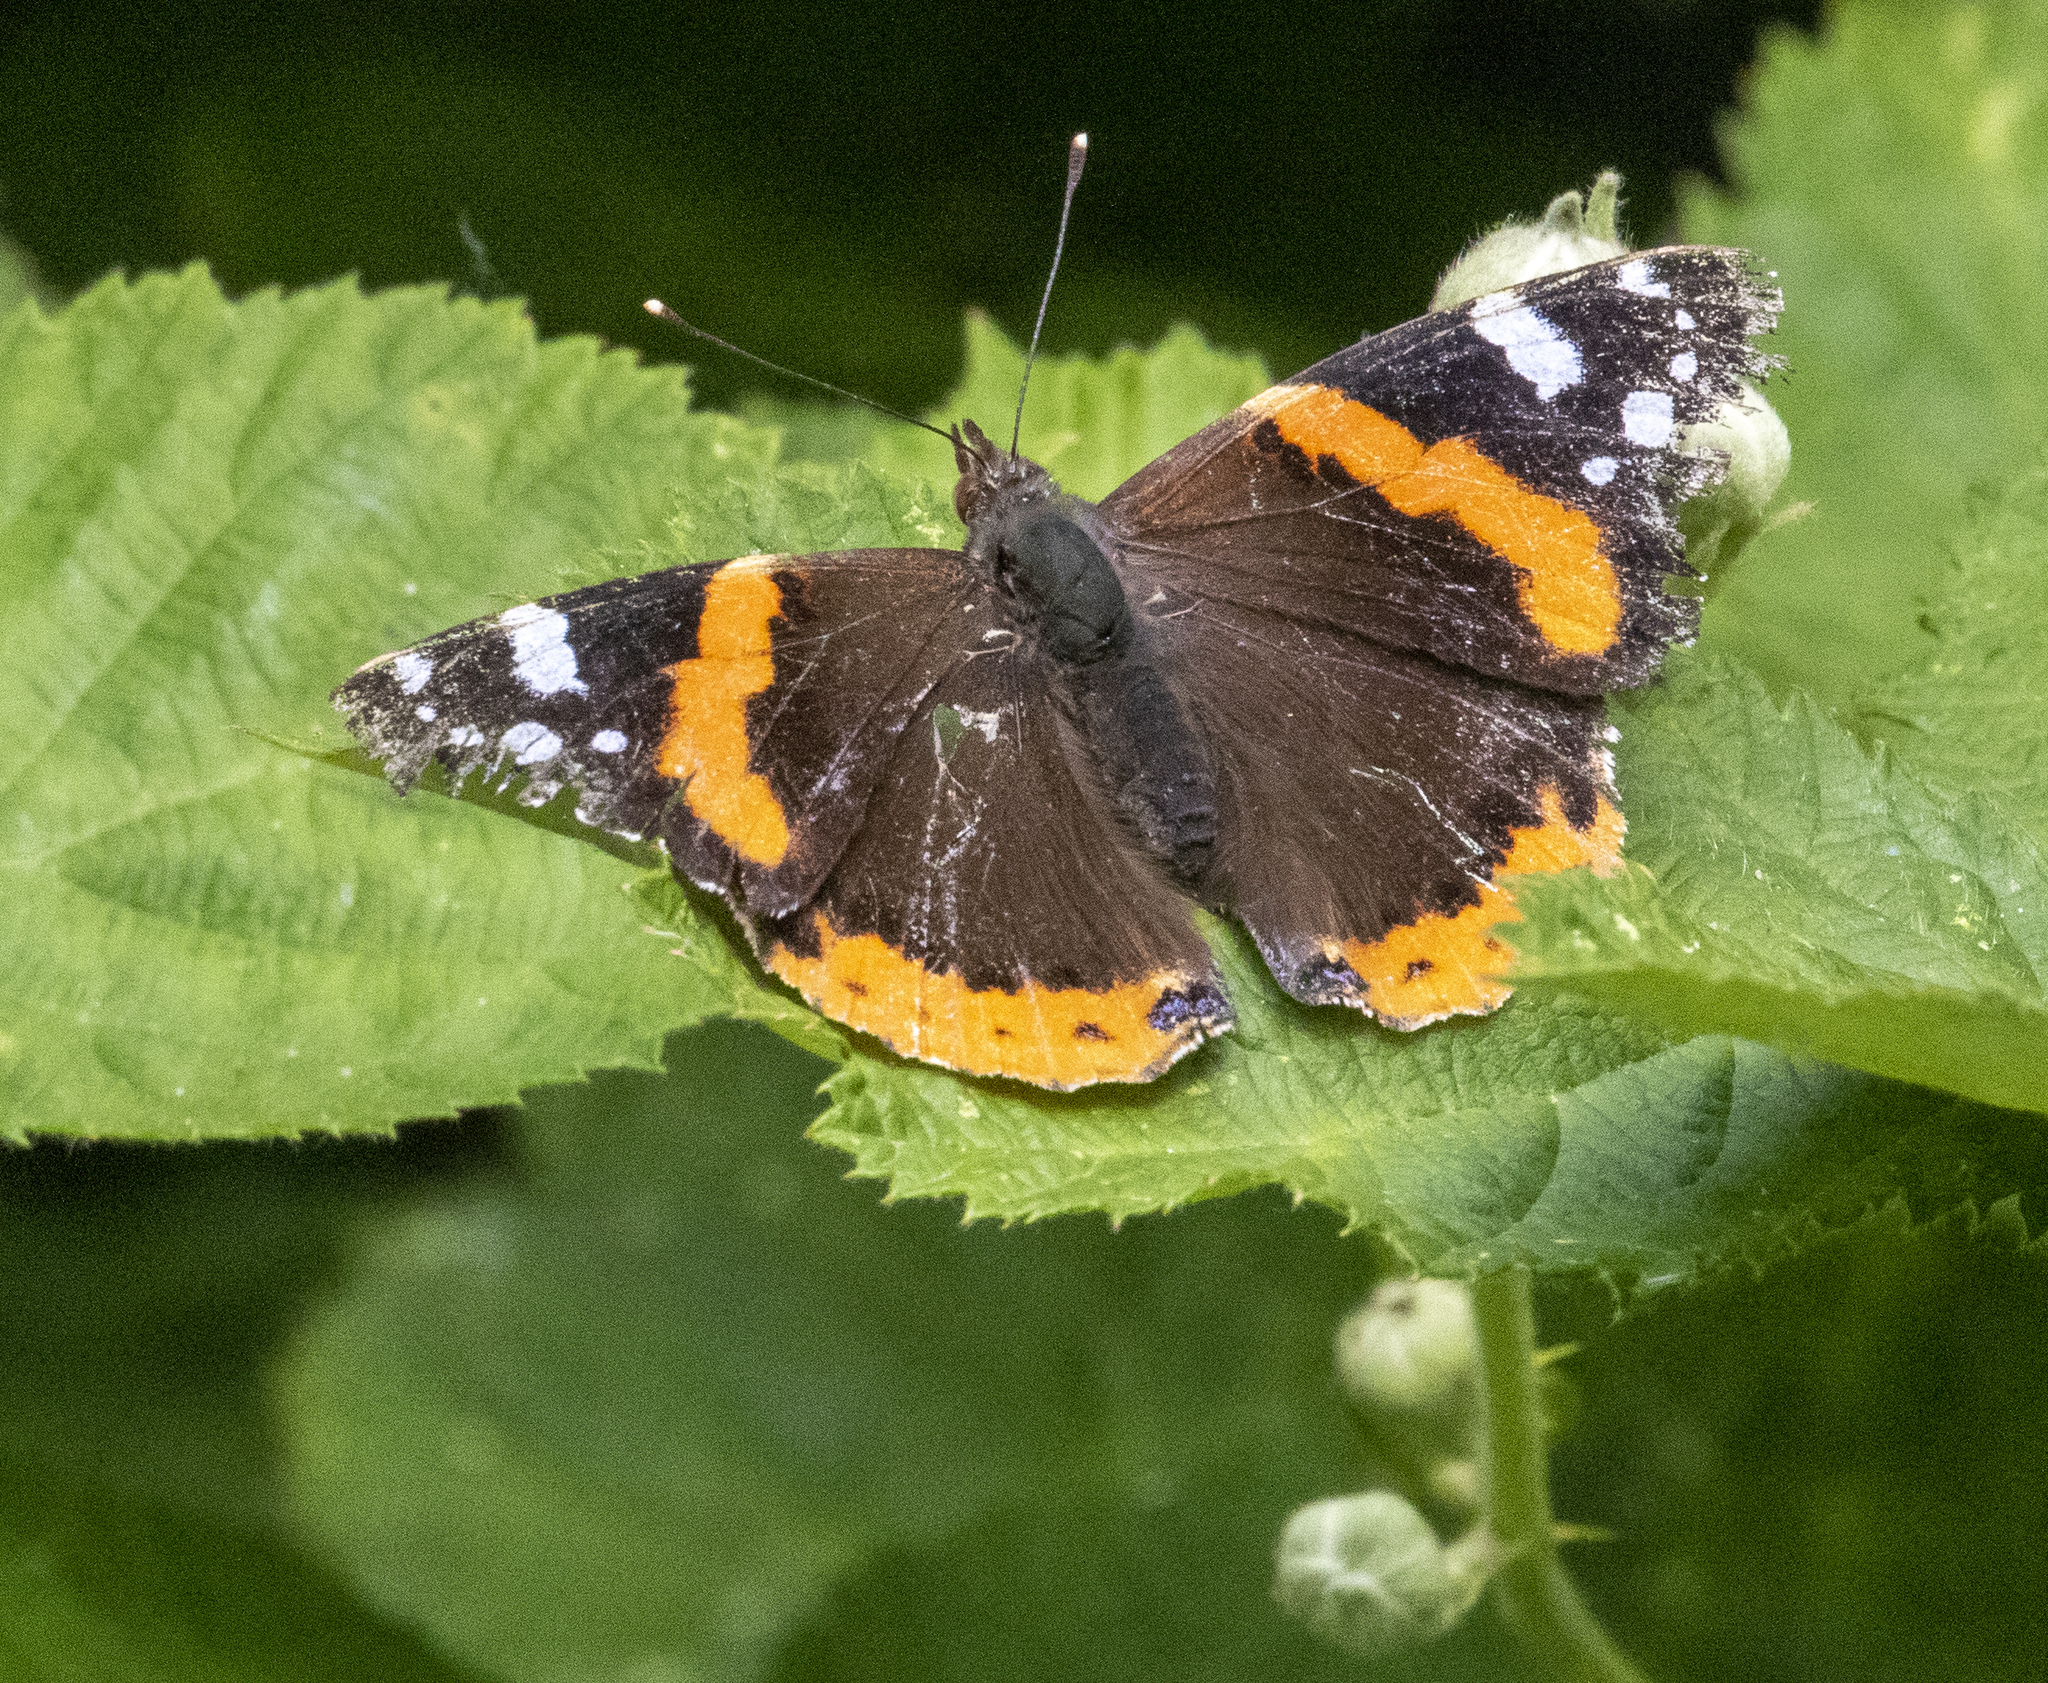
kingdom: Animalia
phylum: Arthropoda
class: Insecta
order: Lepidoptera
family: Nymphalidae
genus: Vanessa
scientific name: Vanessa atalanta
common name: Red admiral
